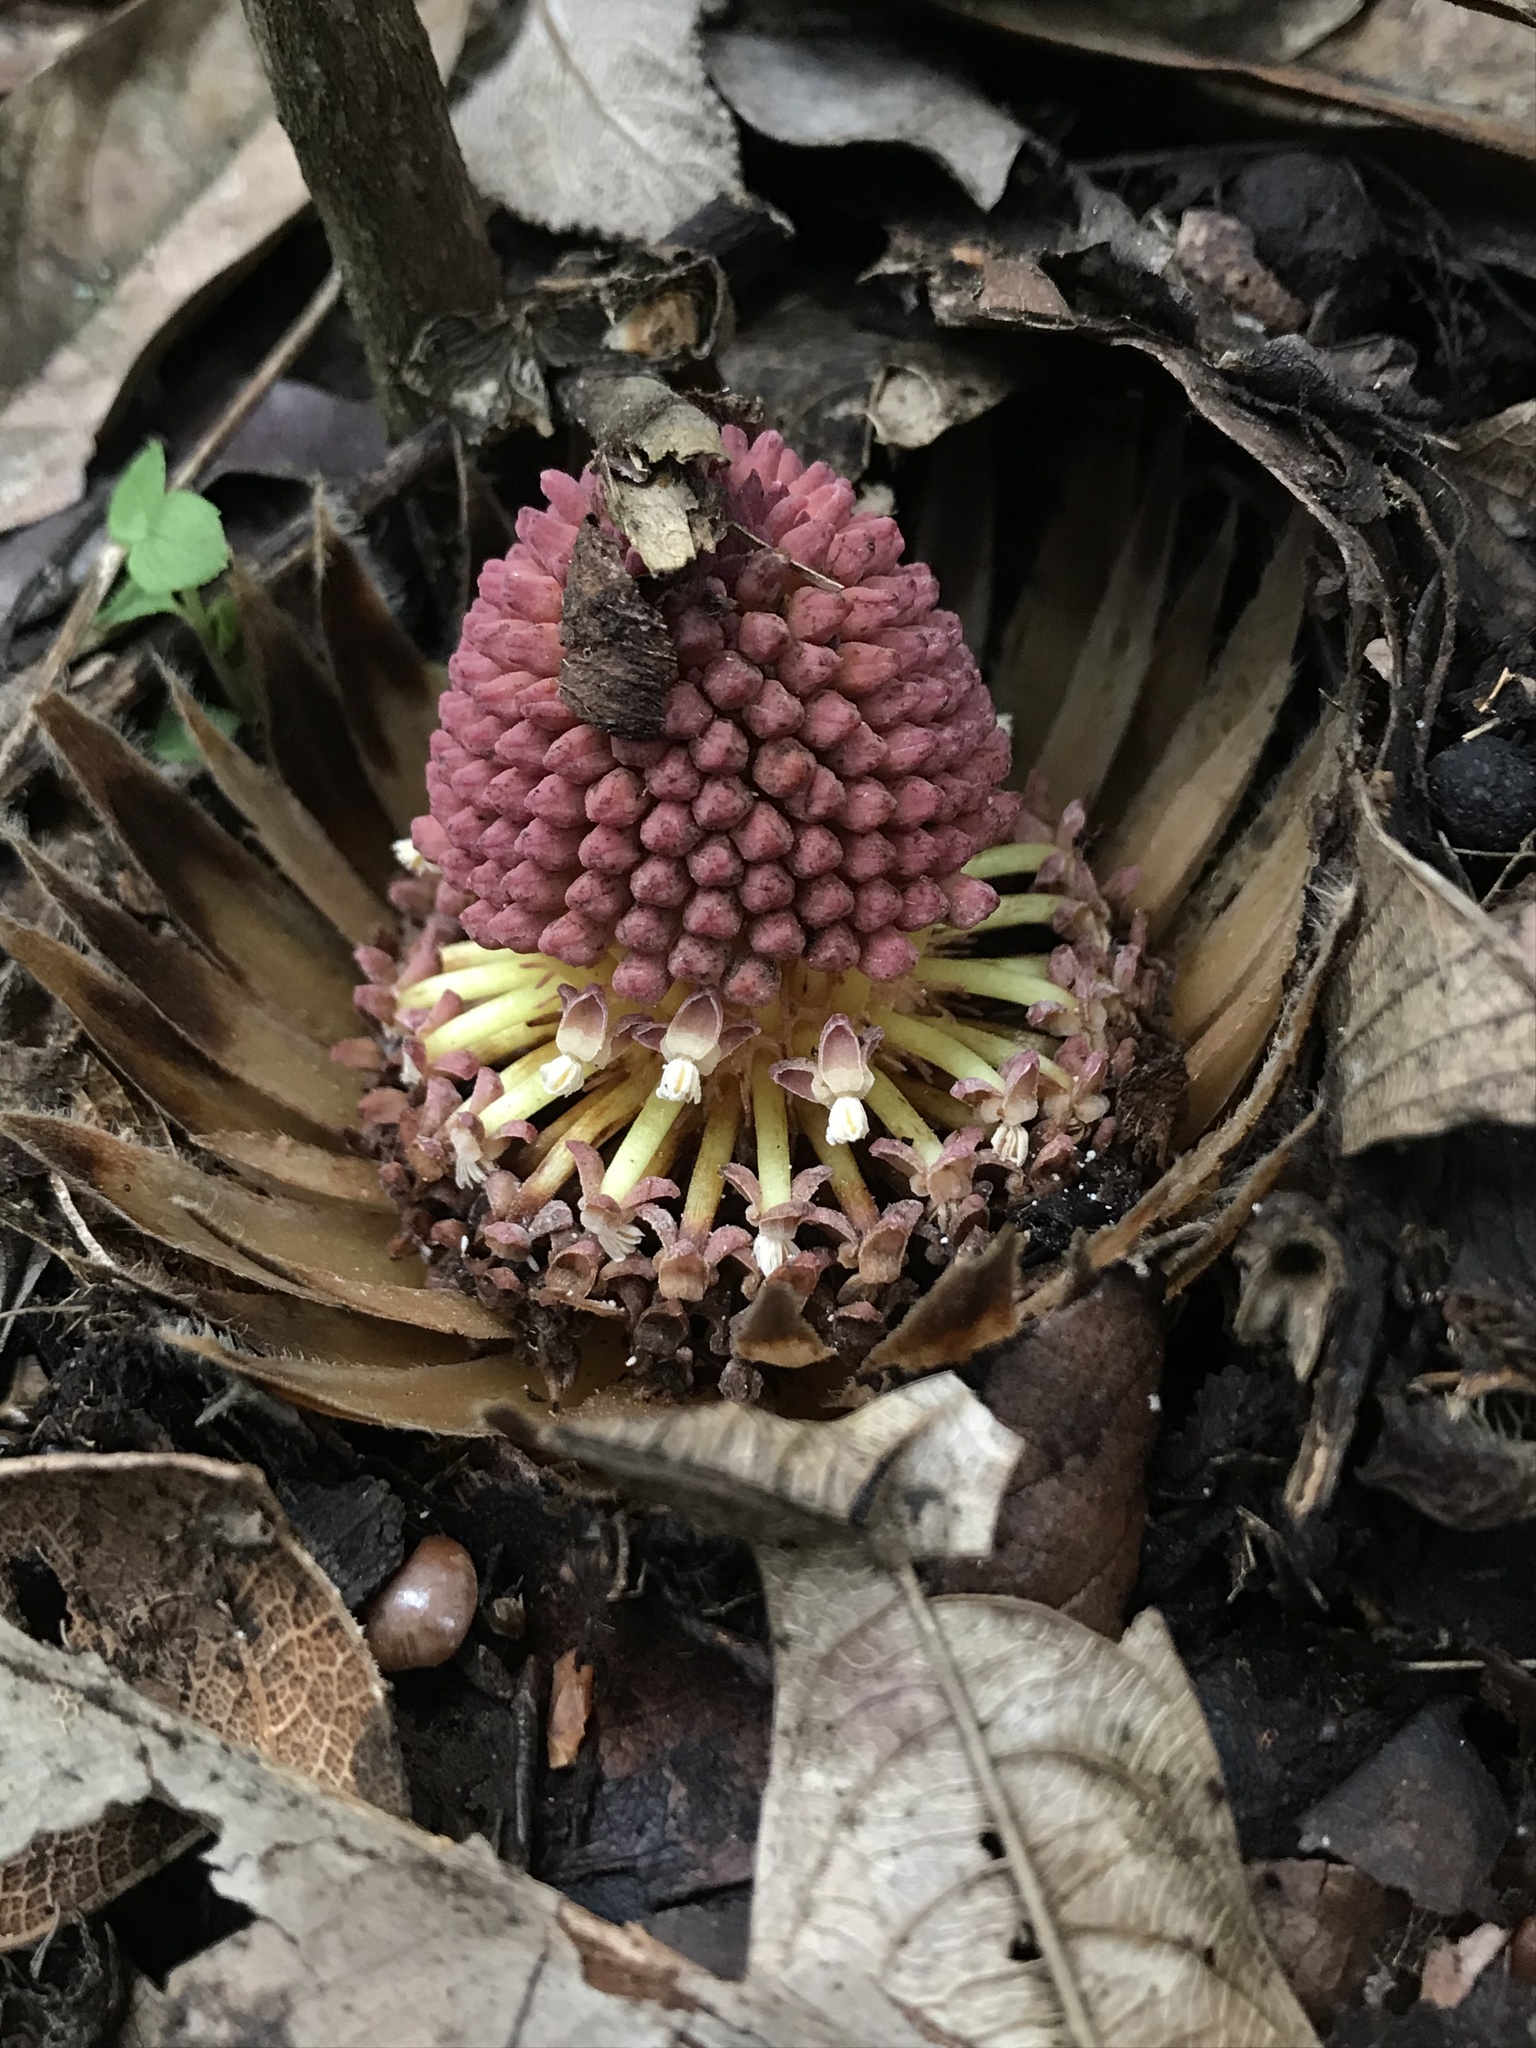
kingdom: Plantae
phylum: Tracheophyta
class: Magnoliopsida
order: Santalales
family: Balanophoraceae
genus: Langsdorffia
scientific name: Langsdorffia hypogaea
